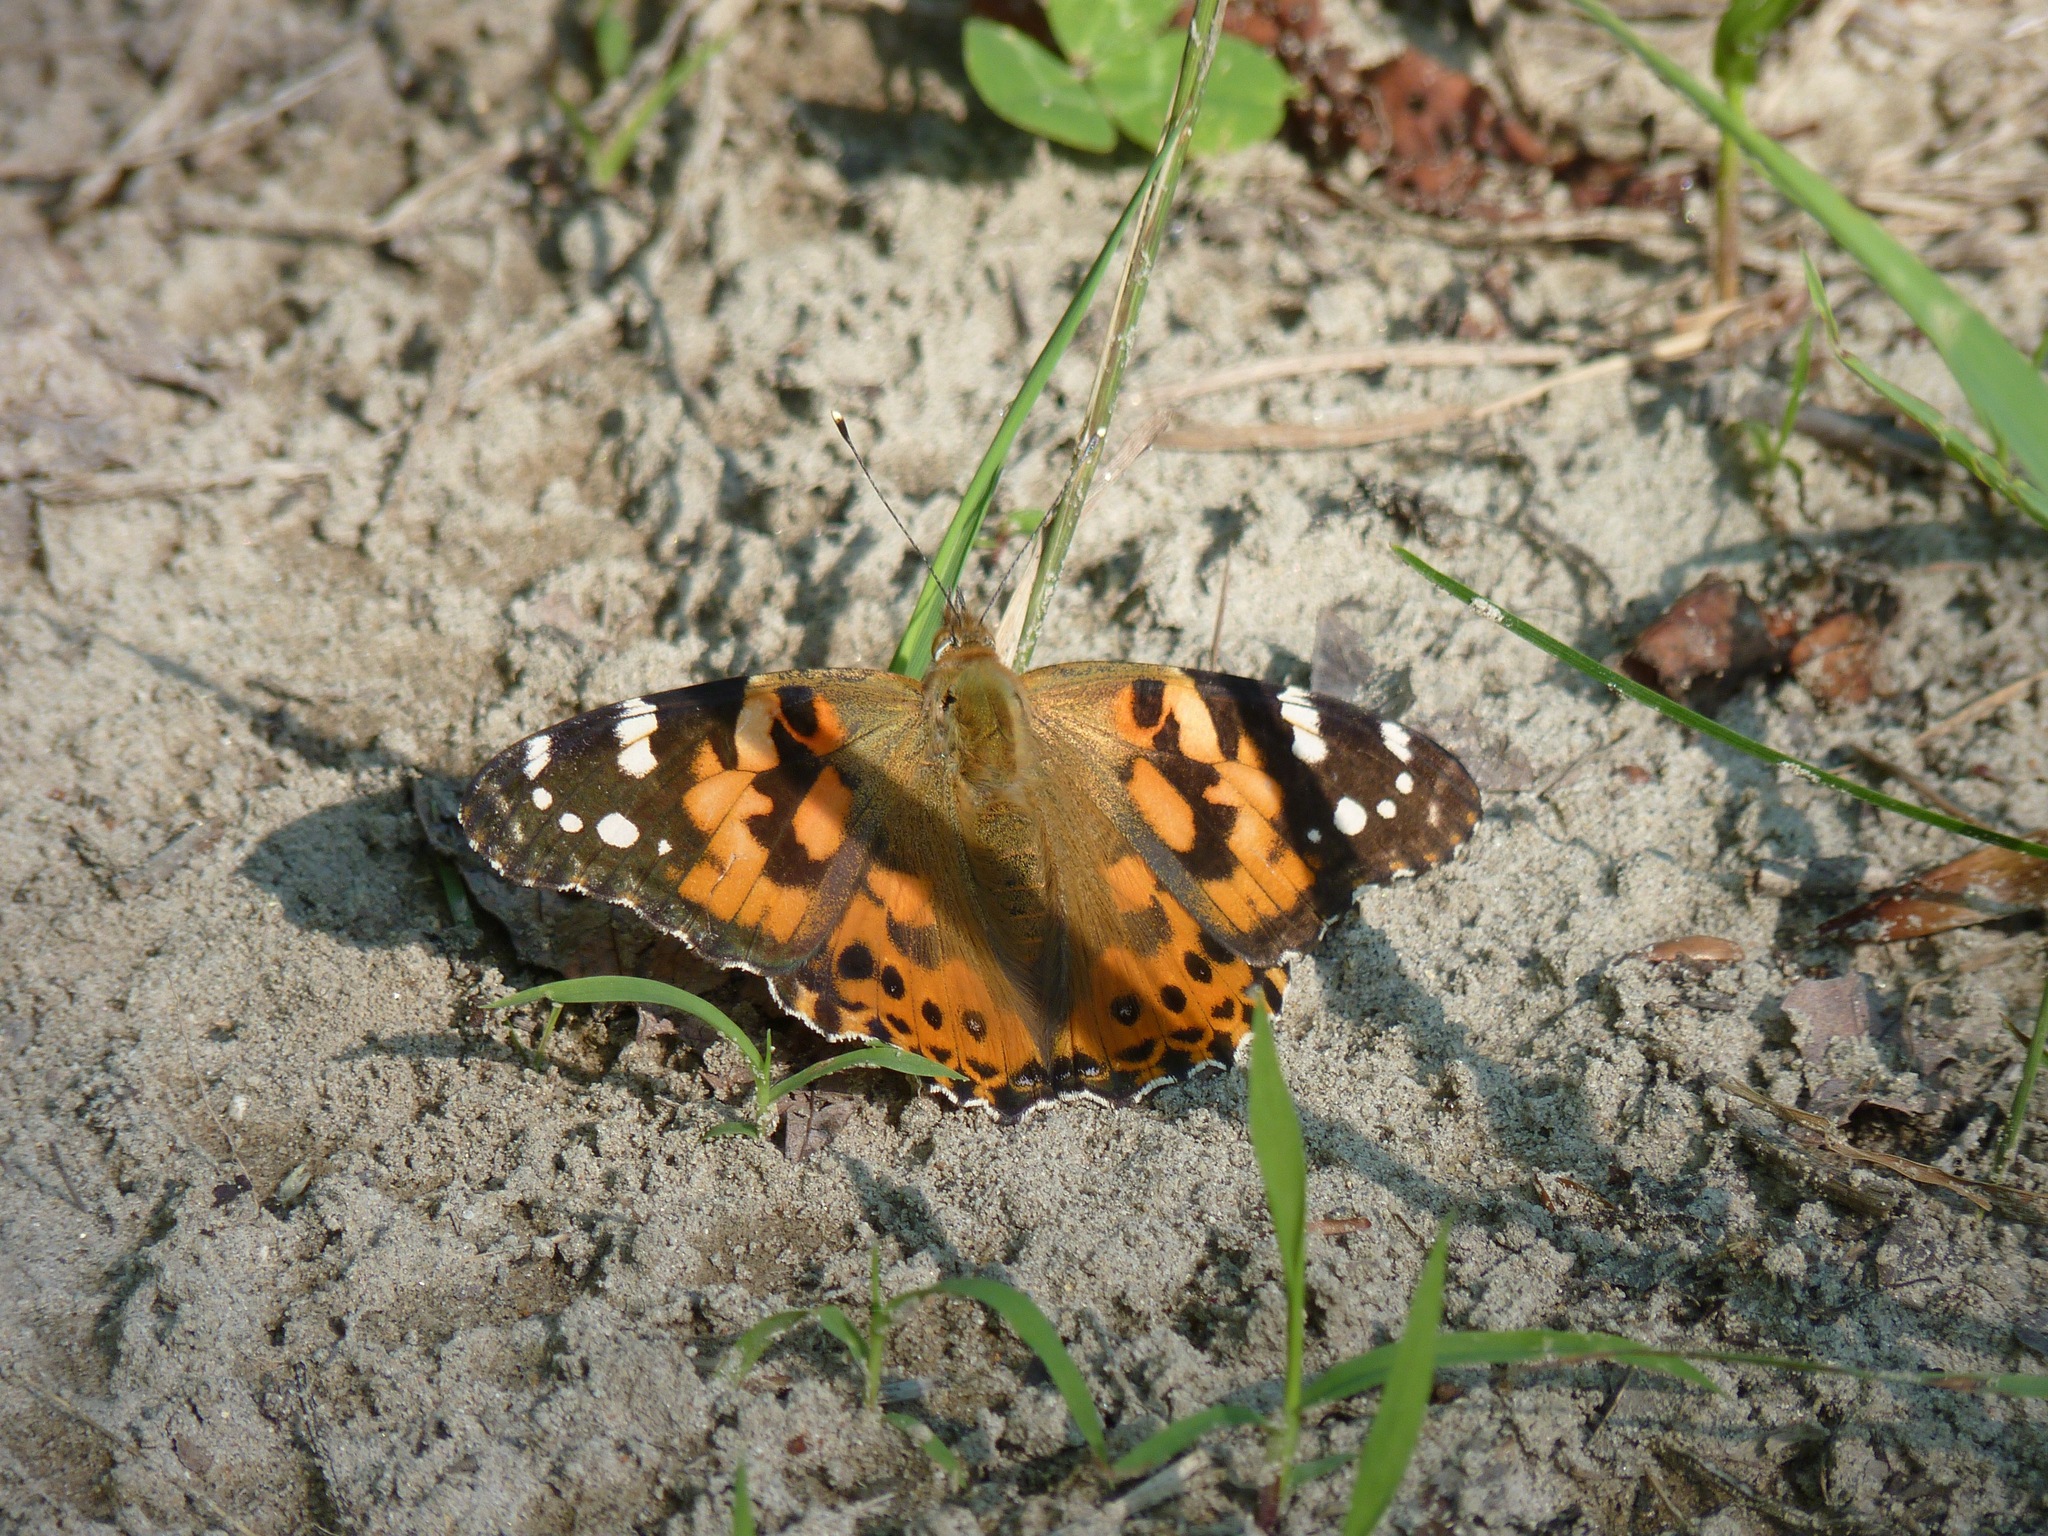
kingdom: Animalia
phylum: Arthropoda
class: Insecta
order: Lepidoptera
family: Nymphalidae
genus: Vanessa
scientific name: Vanessa cardui
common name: Painted lady
